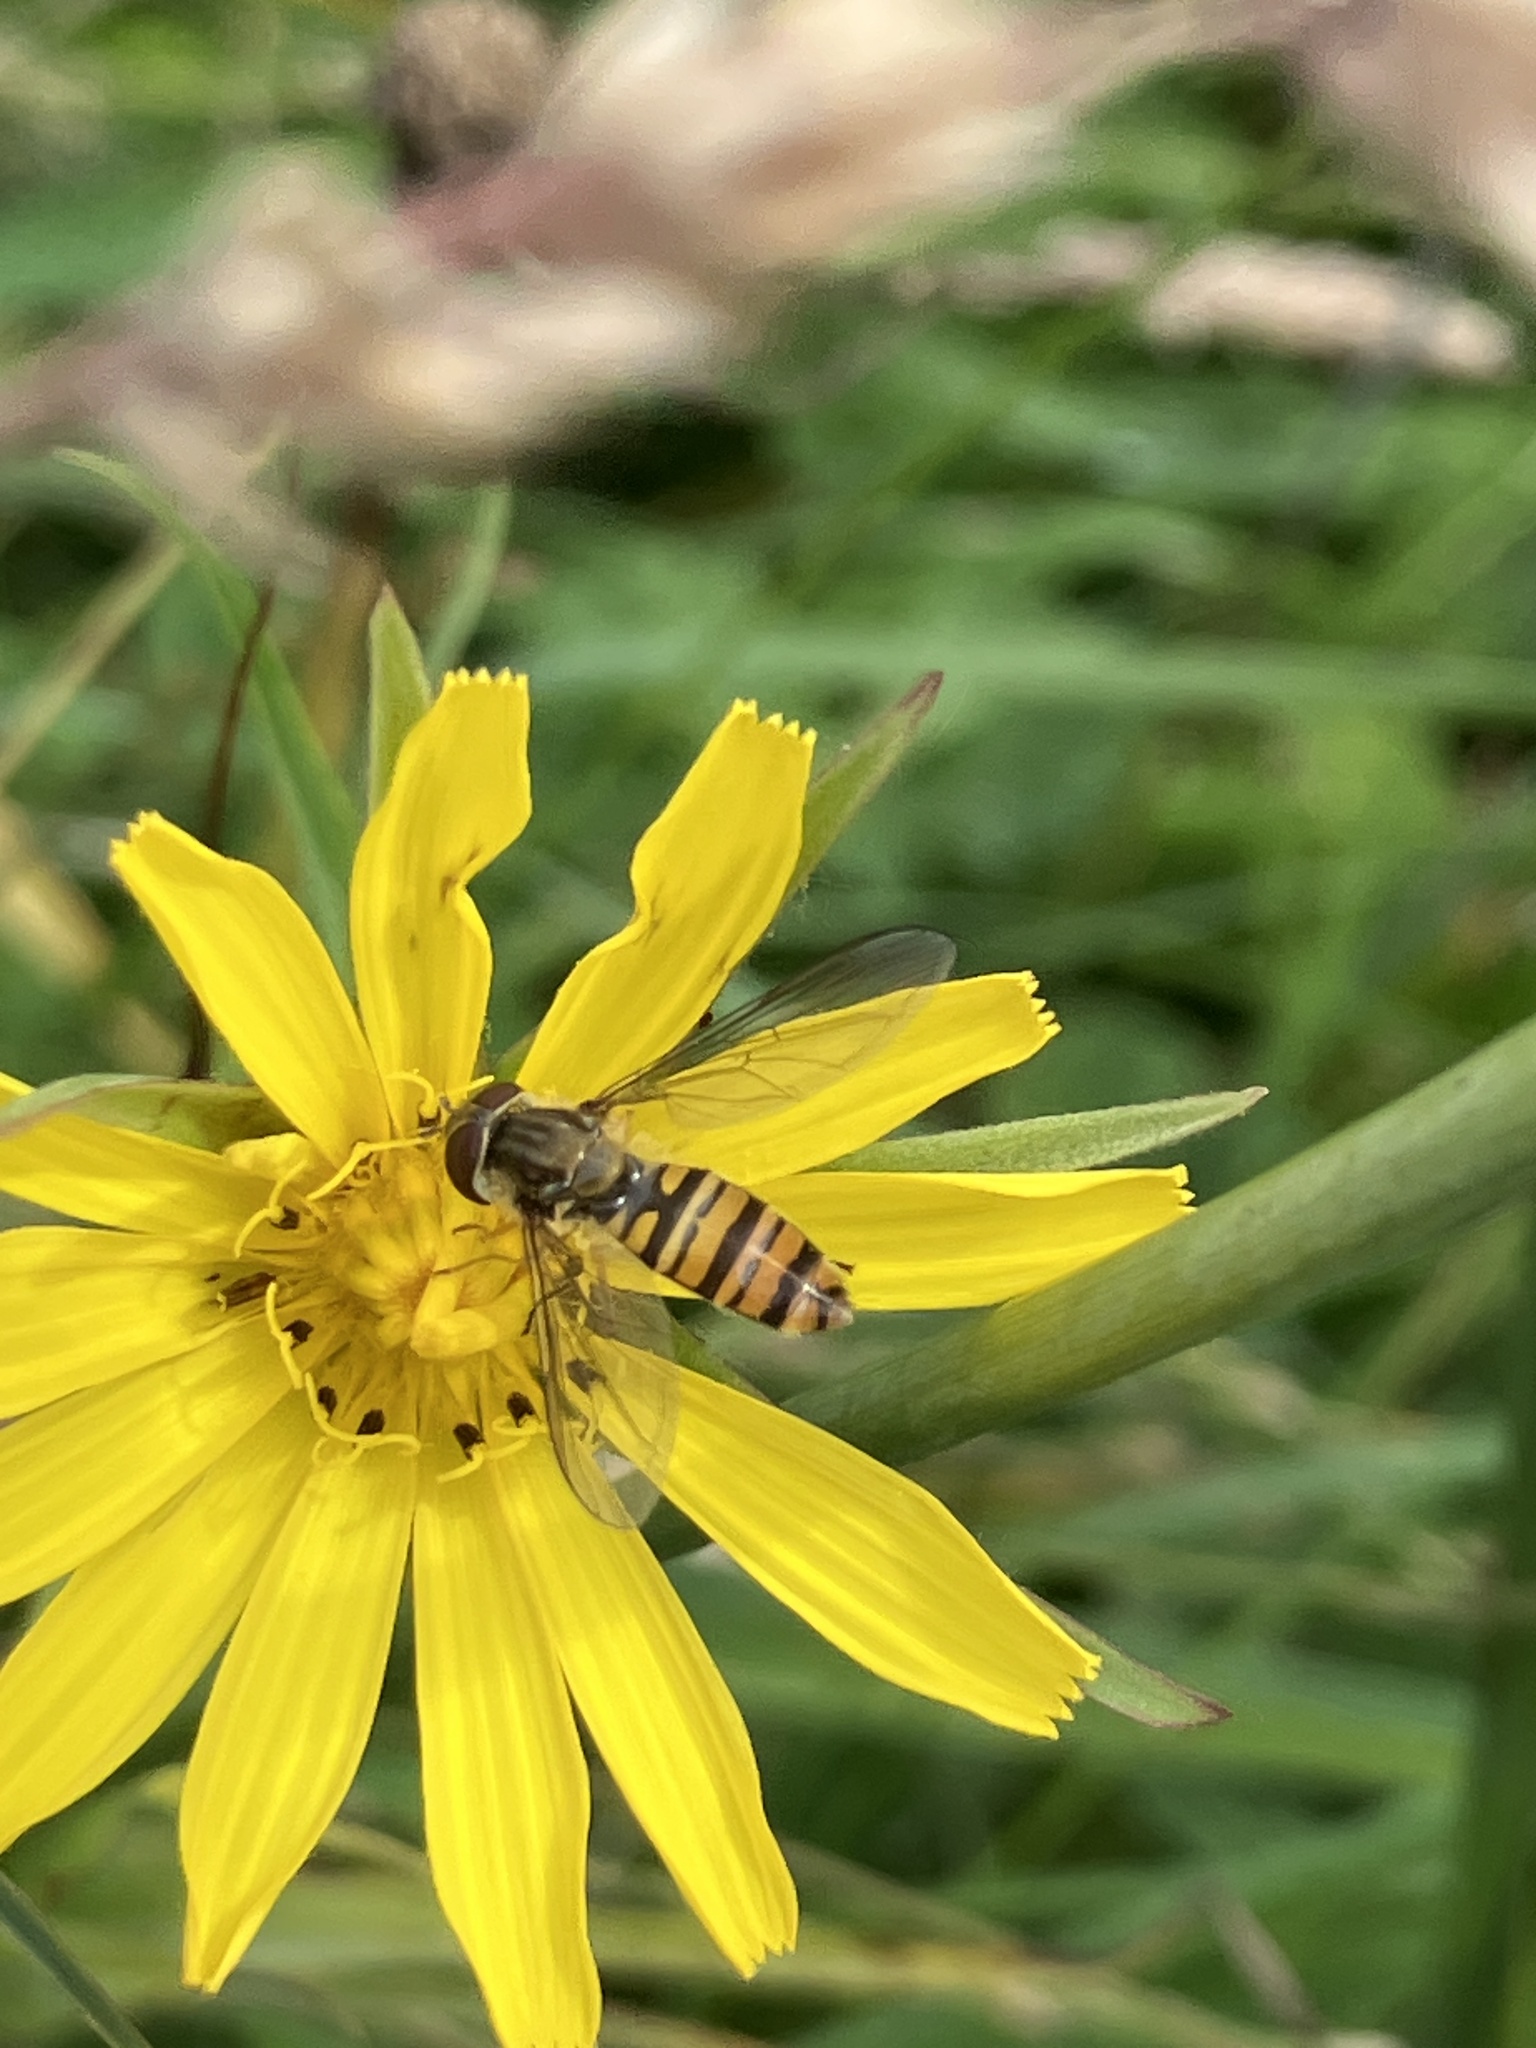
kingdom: Animalia
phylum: Arthropoda
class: Insecta
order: Diptera
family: Syrphidae
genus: Episyrphus
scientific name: Episyrphus balteatus
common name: Marmalade hoverfly
